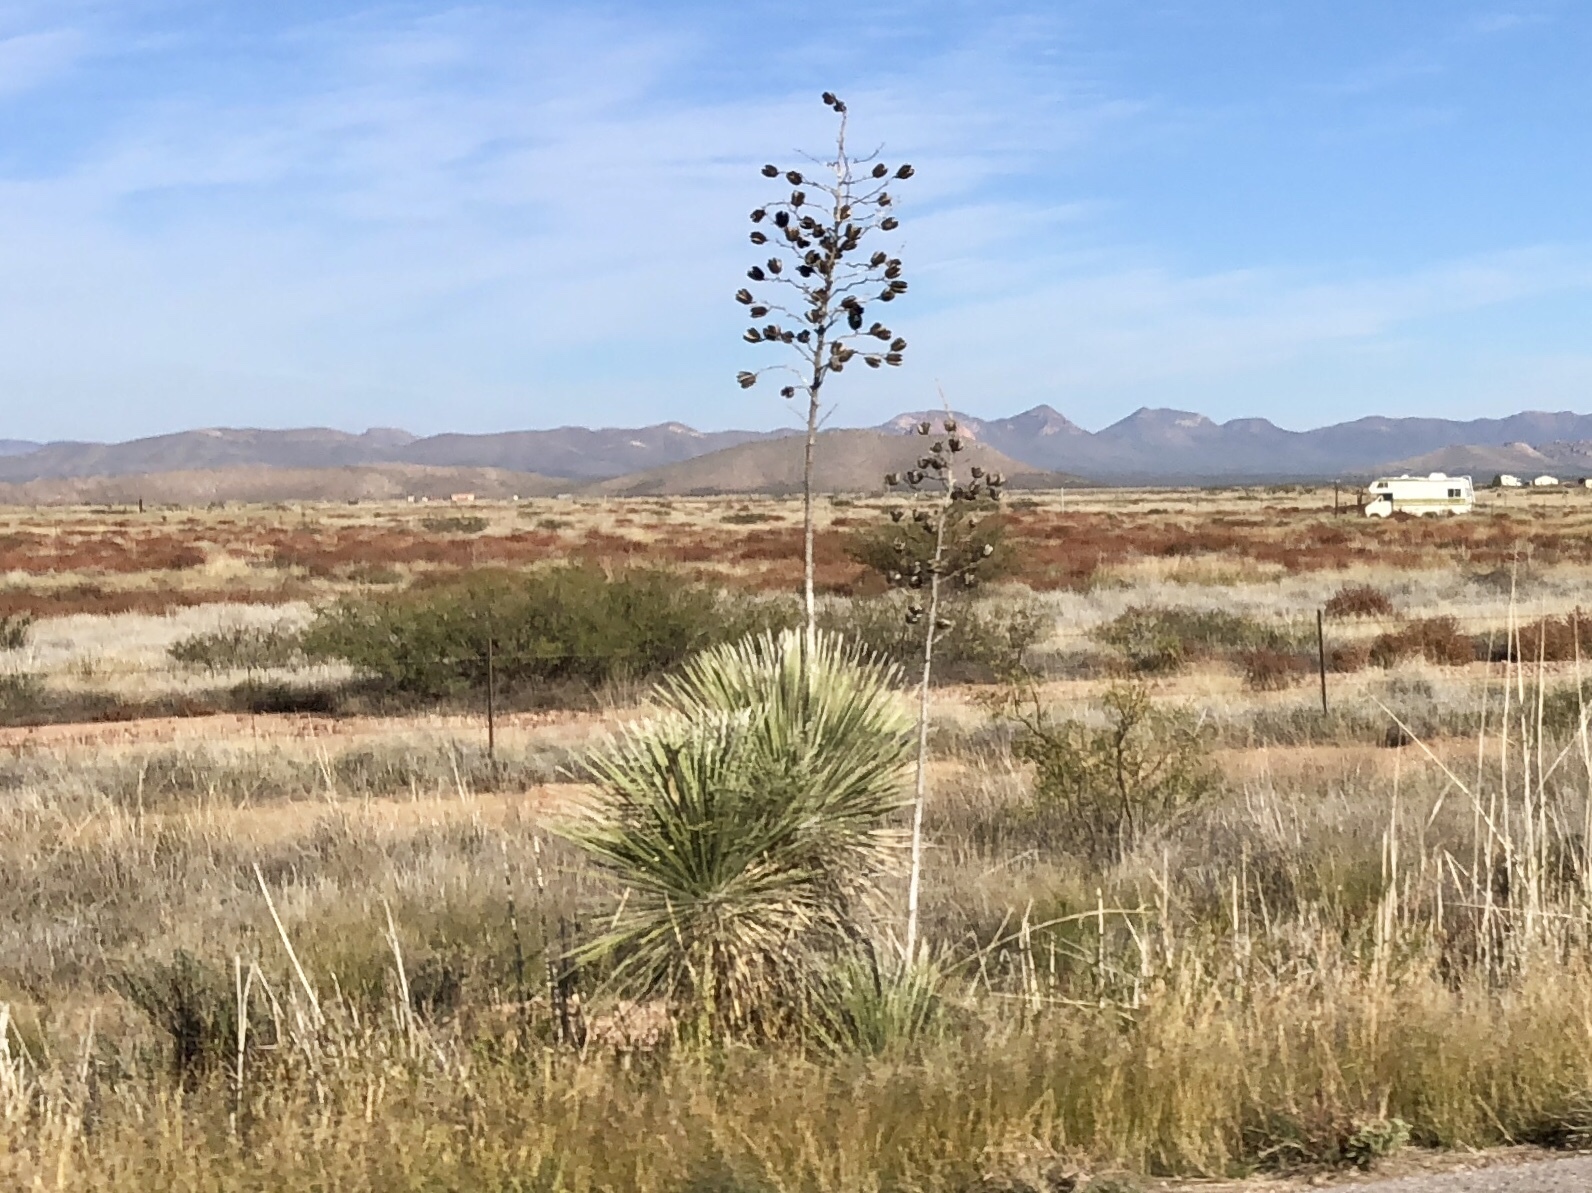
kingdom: Plantae
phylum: Tracheophyta
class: Liliopsida
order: Asparagales
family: Asparagaceae
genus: Yucca
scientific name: Yucca elata
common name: Palmella
